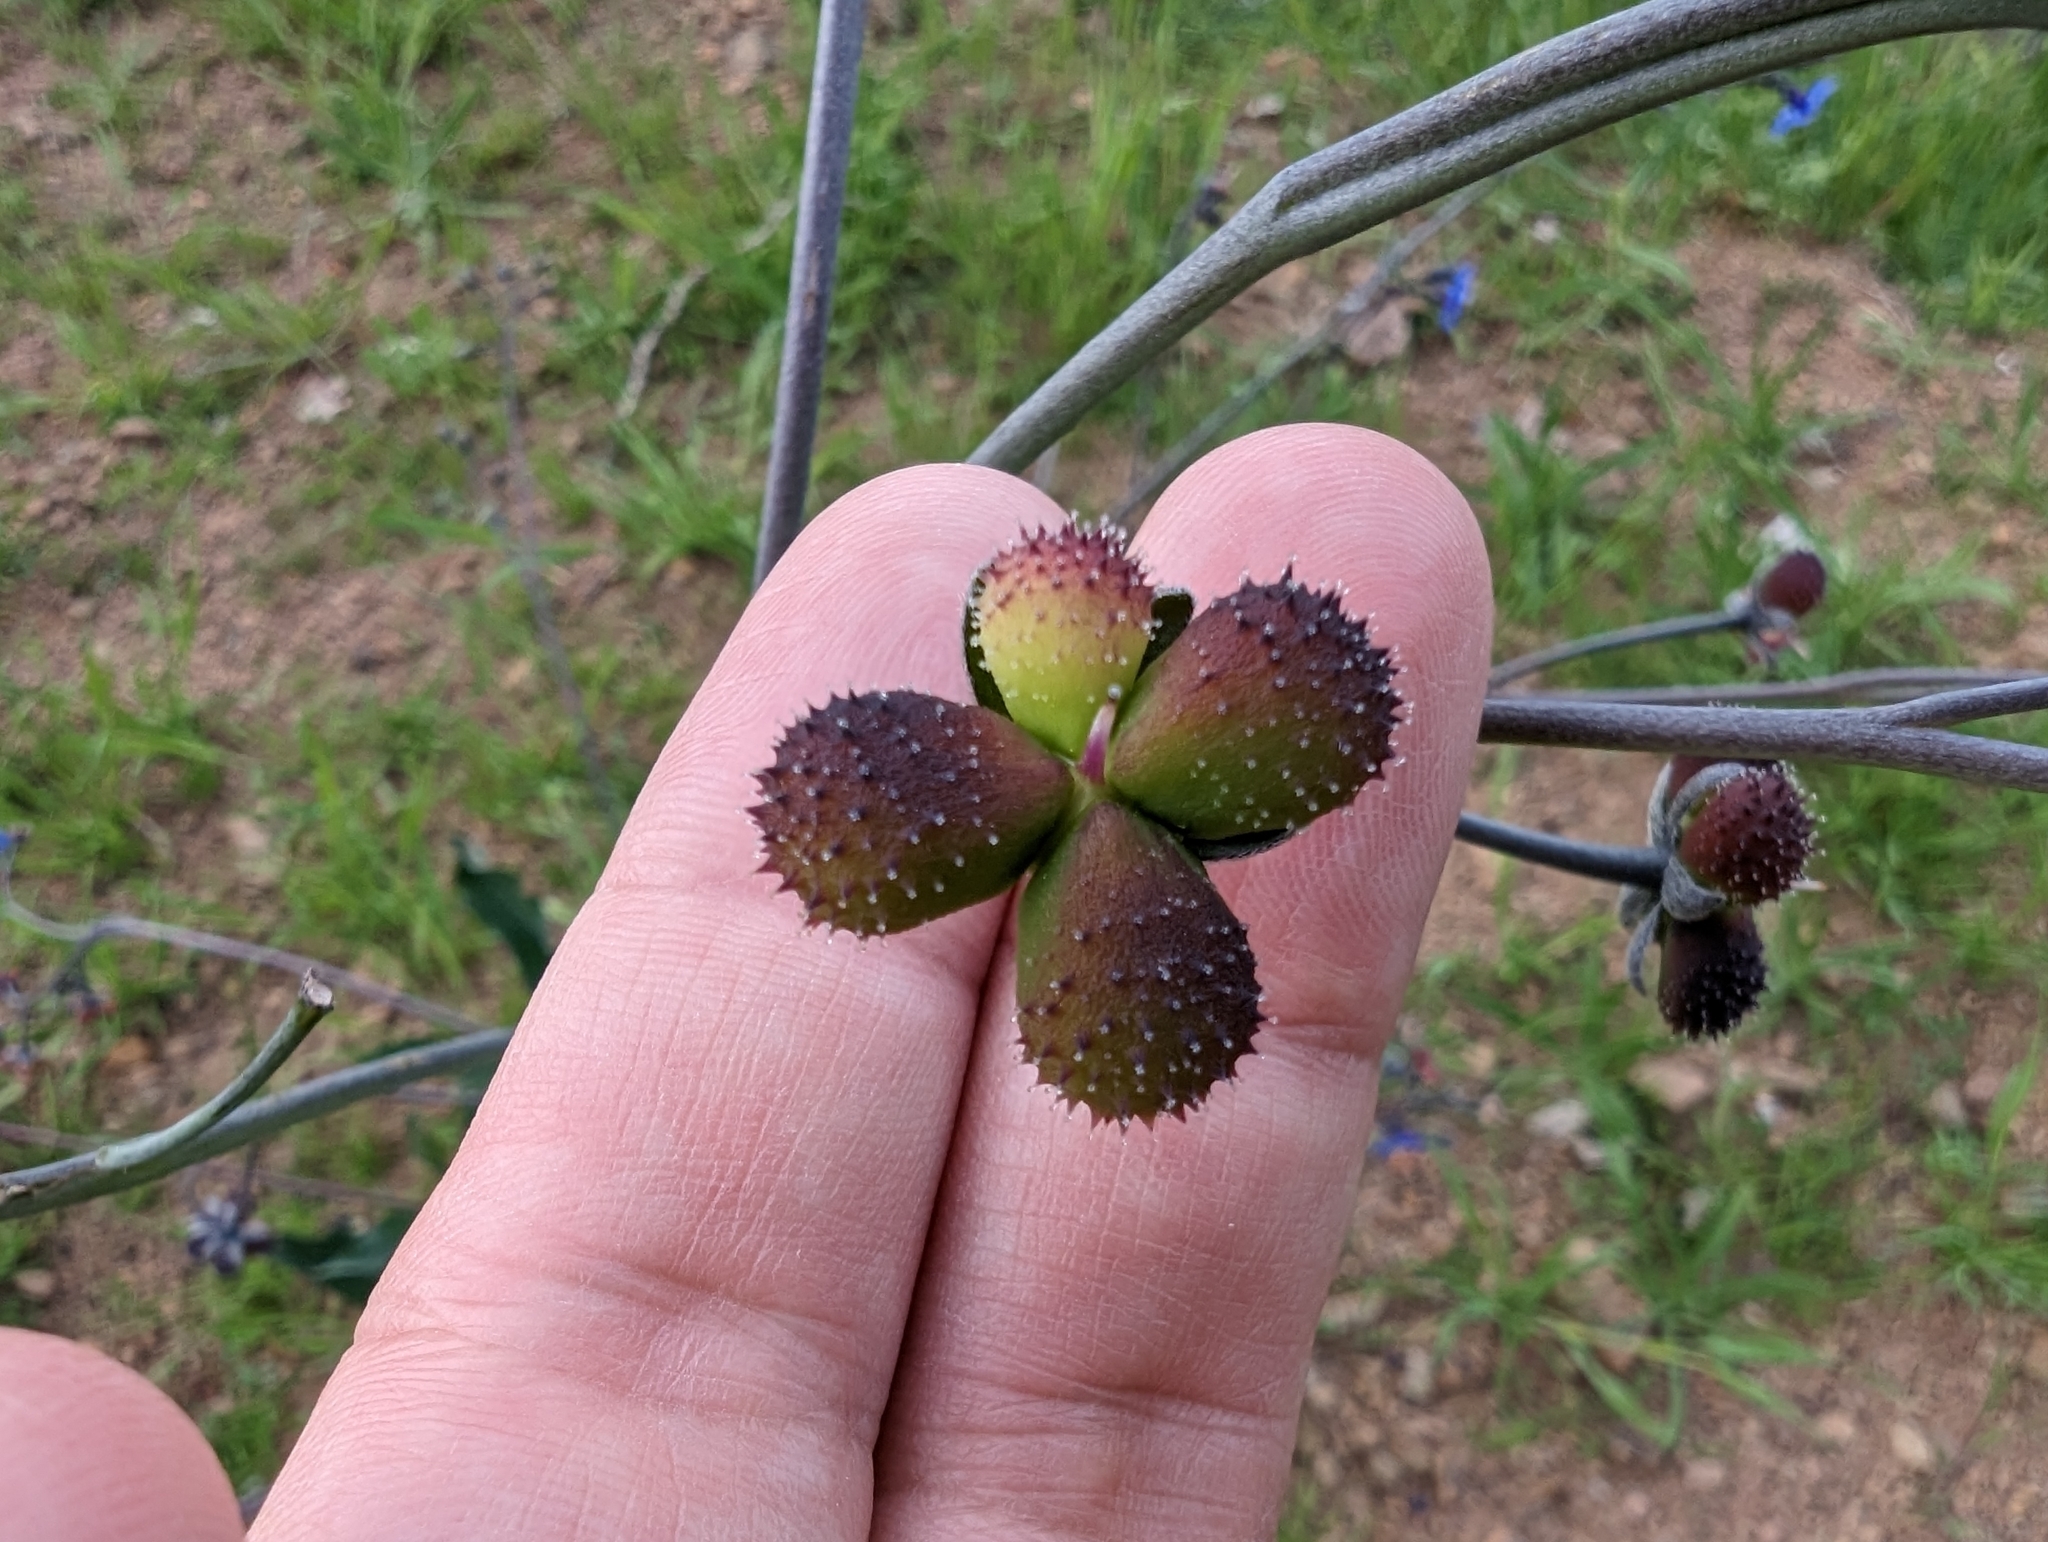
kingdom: Plantae
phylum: Tracheophyta
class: Magnoliopsida
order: Boraginales
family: Boraginaceae
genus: Adelinia
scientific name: Adelinia grande
